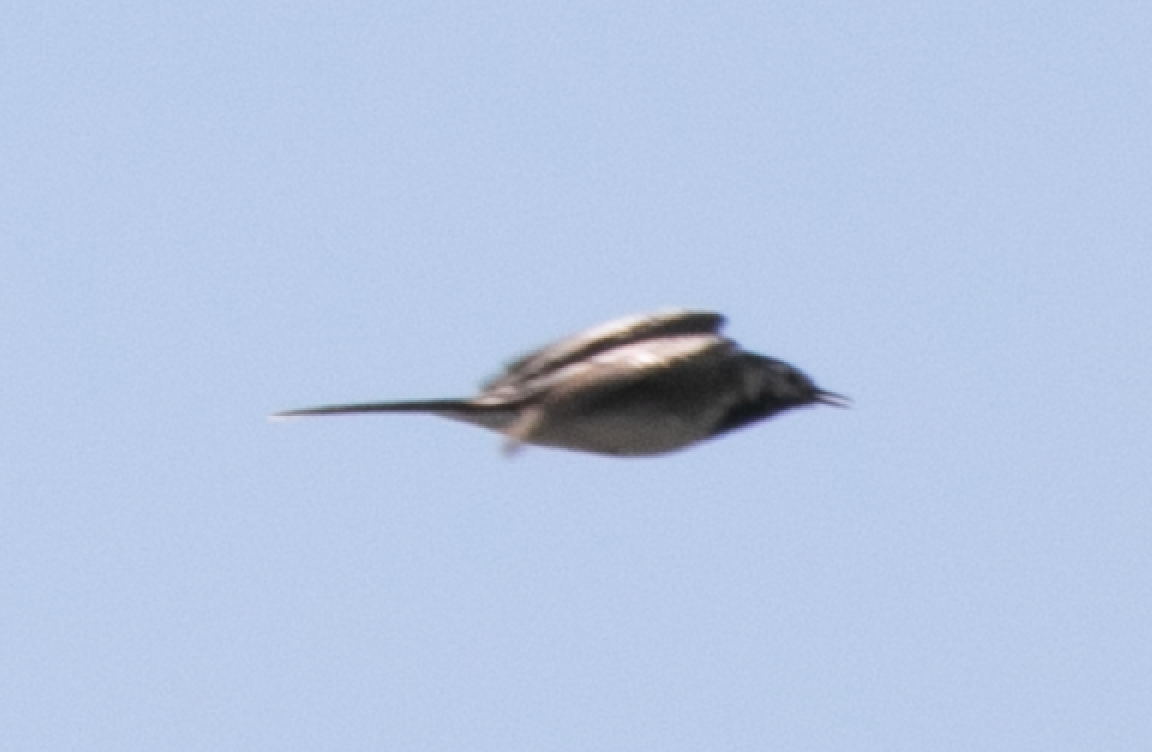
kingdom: Animalia
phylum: Chordata
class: Aves
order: Passeriformes
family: Motacillidae
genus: Motacilla
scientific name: Motacilla alba
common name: White wagtail
